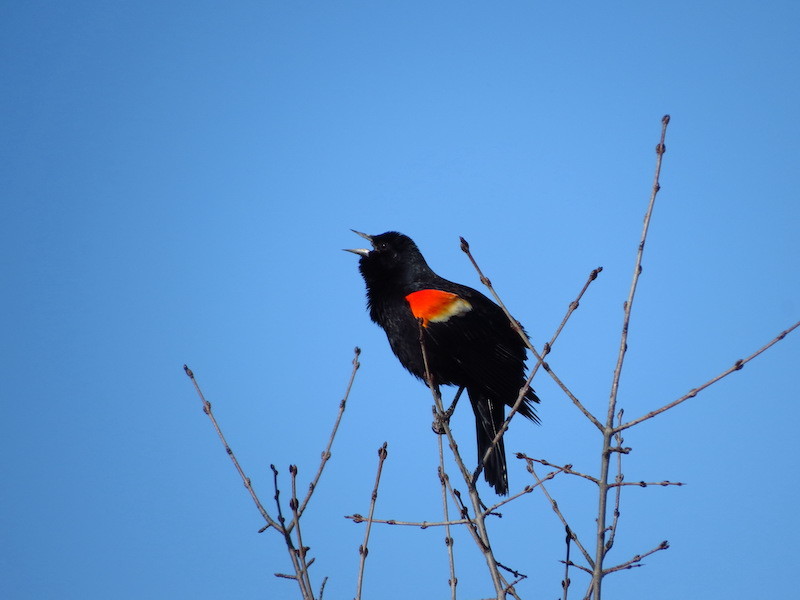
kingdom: Animalia
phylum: Chordata
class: Aves
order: Passeriformes
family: Icteridae
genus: Agelaius
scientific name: Agelaius phoeniceus
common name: Red-winged blackbird
